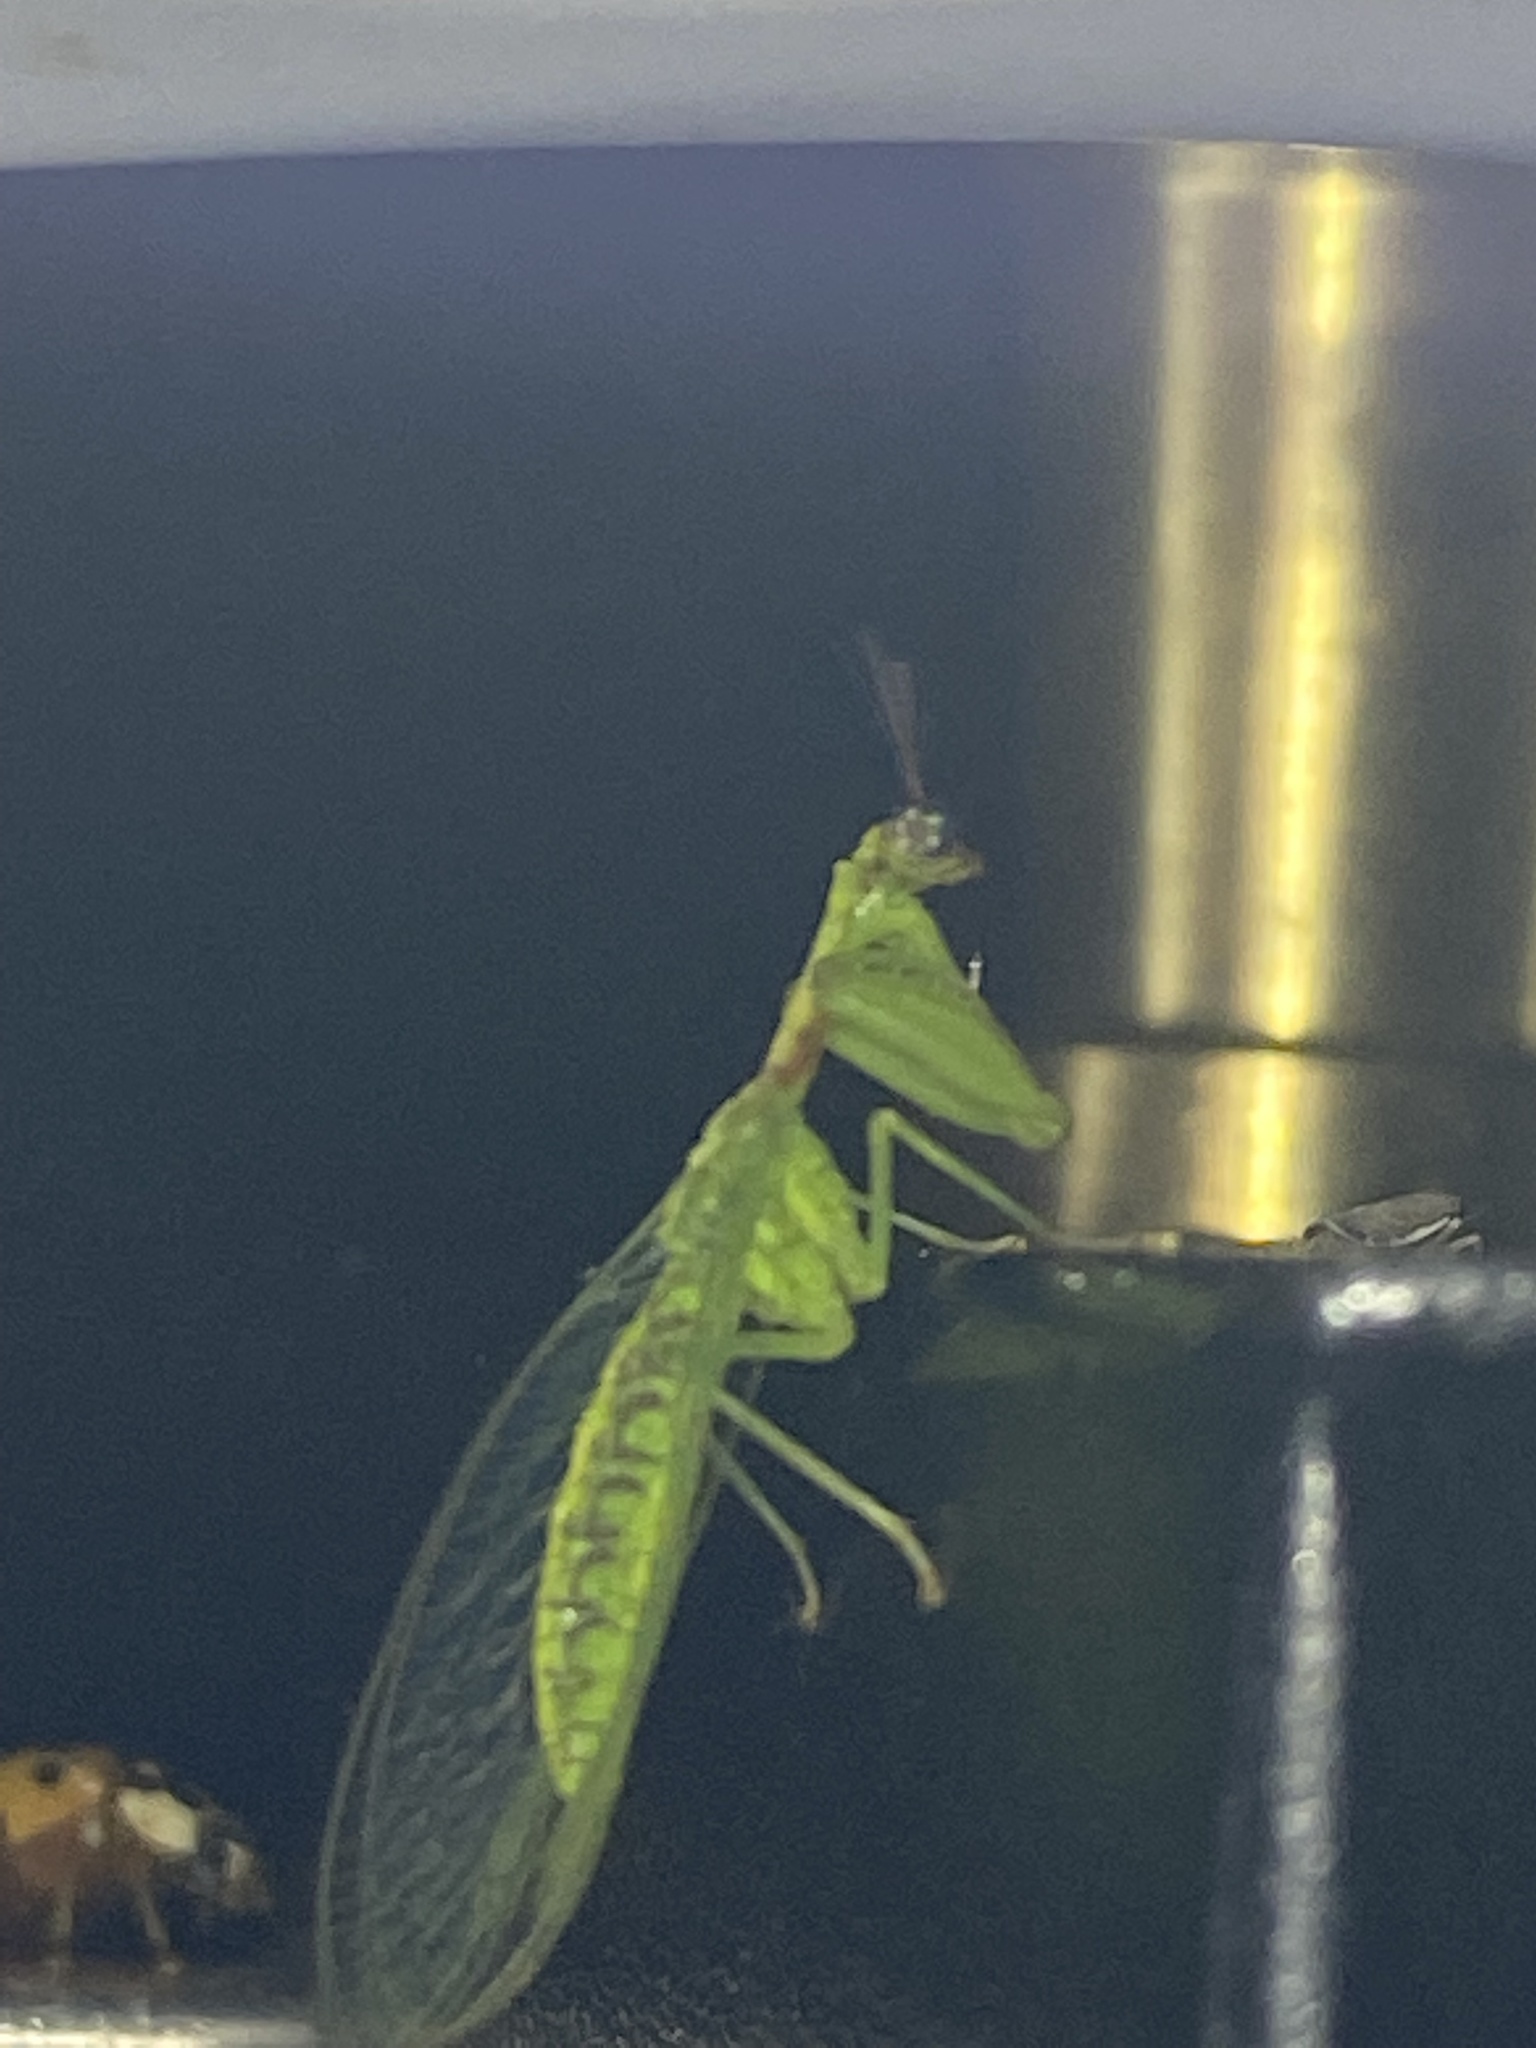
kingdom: Animalia
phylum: Arthropoda
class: Insecta
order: Neuroptera
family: Mantispidae
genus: Zeugomantispa
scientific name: Zeugomantispa minuta
